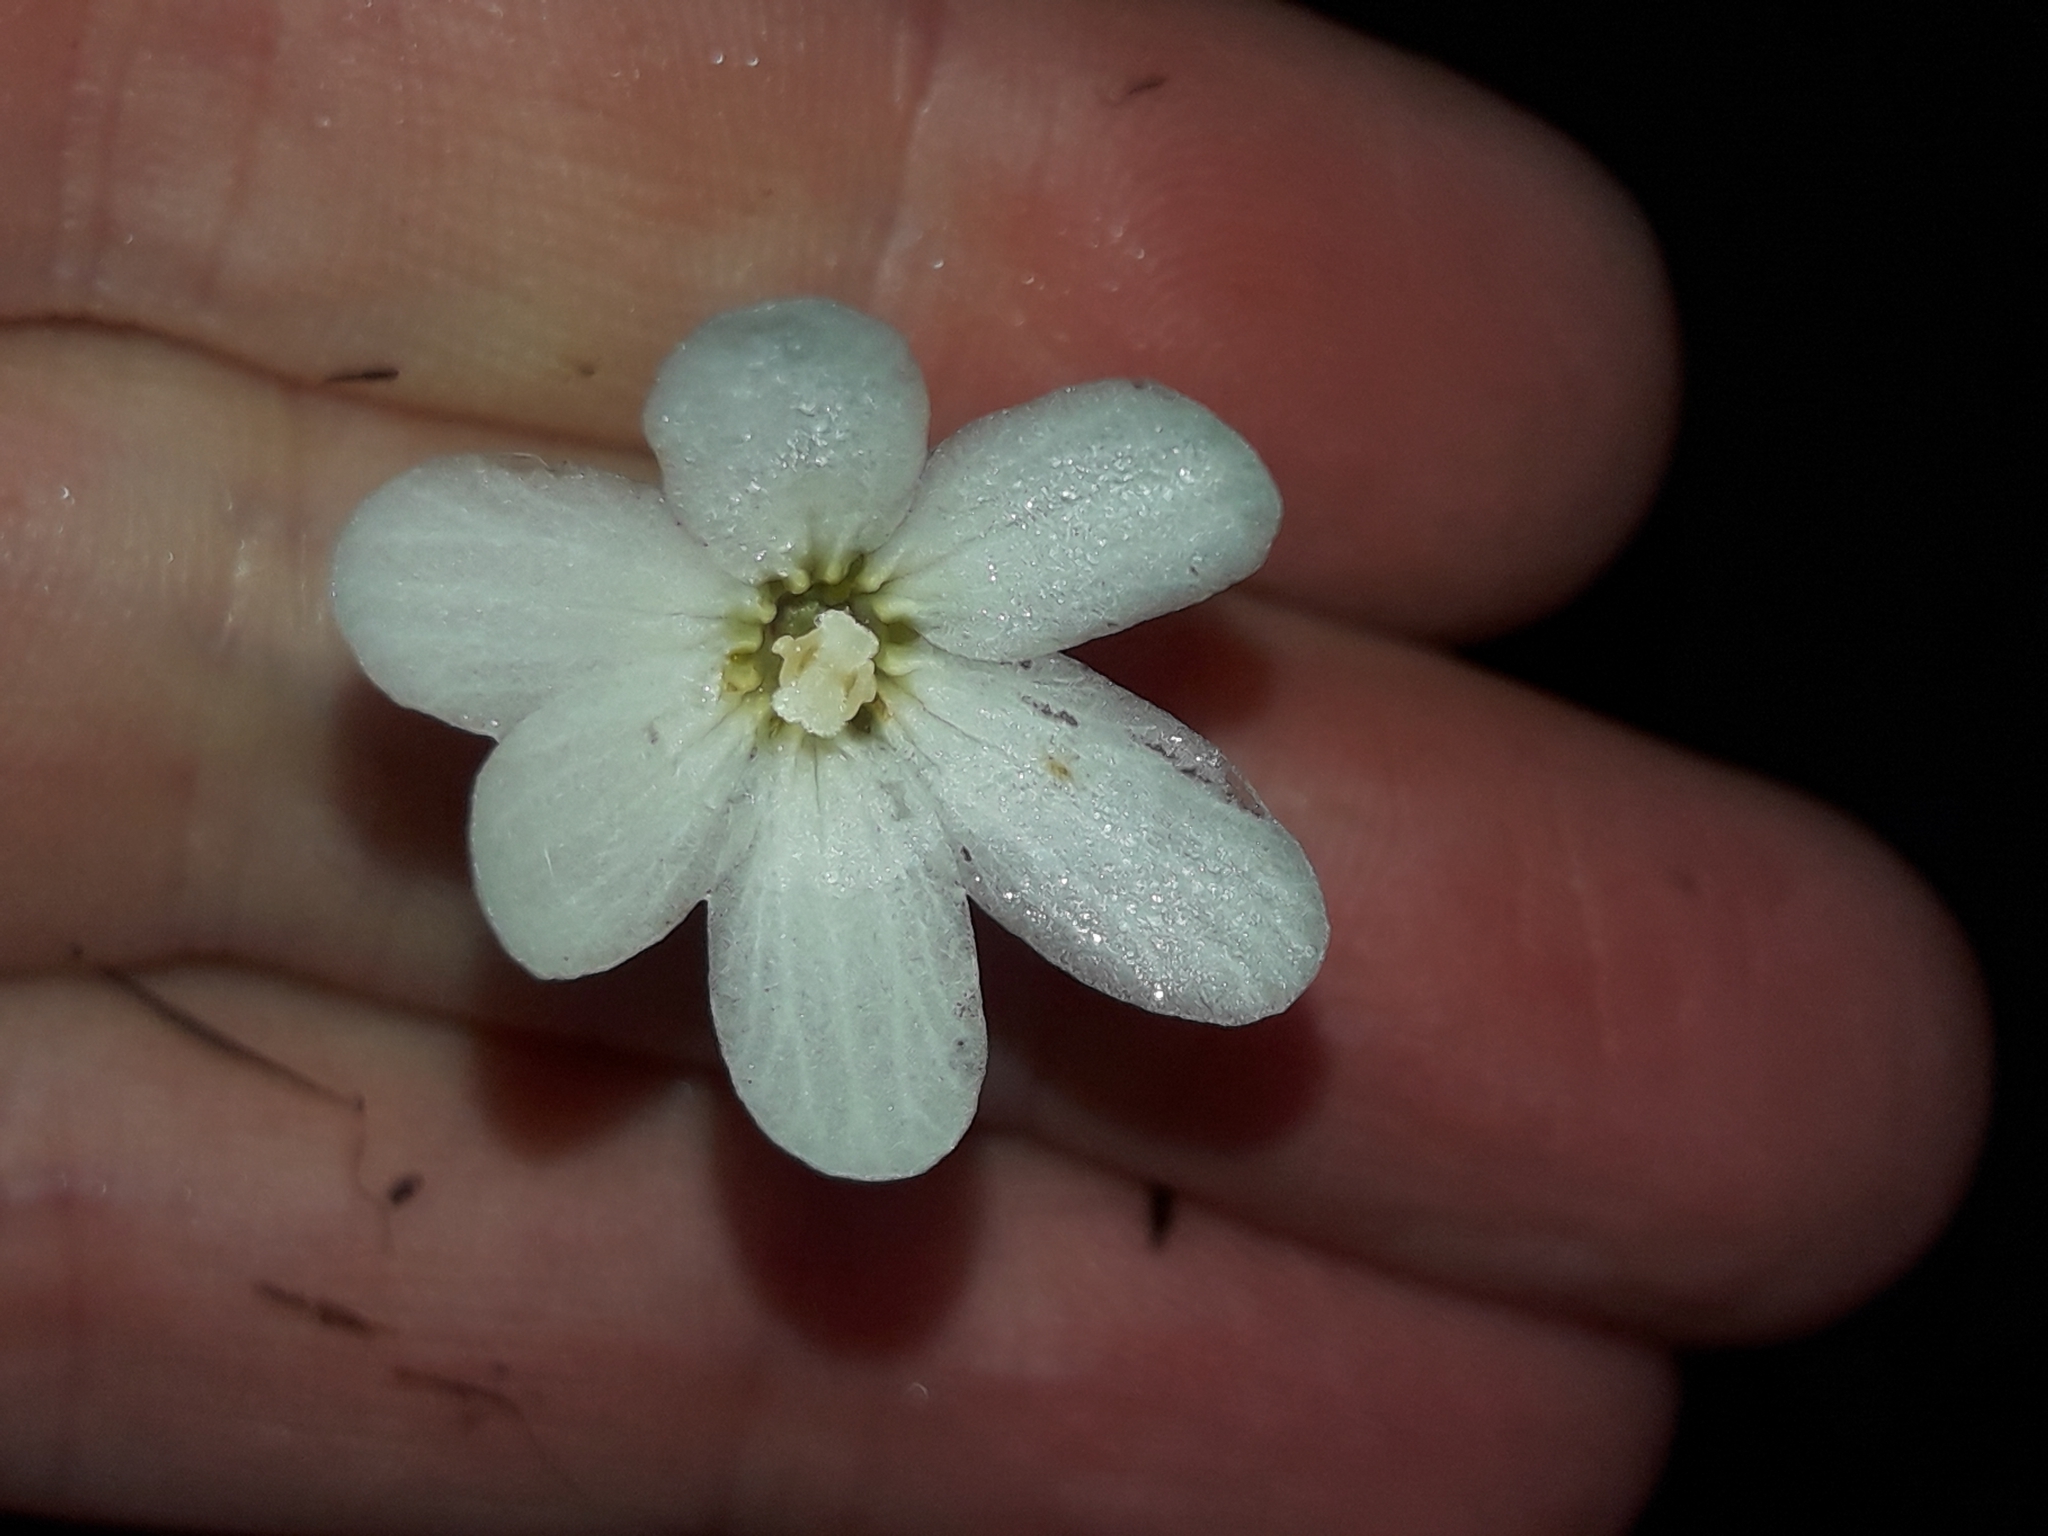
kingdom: Plantae
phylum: Tracheophyta
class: Magnoliopsida
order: Asterales
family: Stylidiaceae
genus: Forstera
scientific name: Forstera sedifolia
